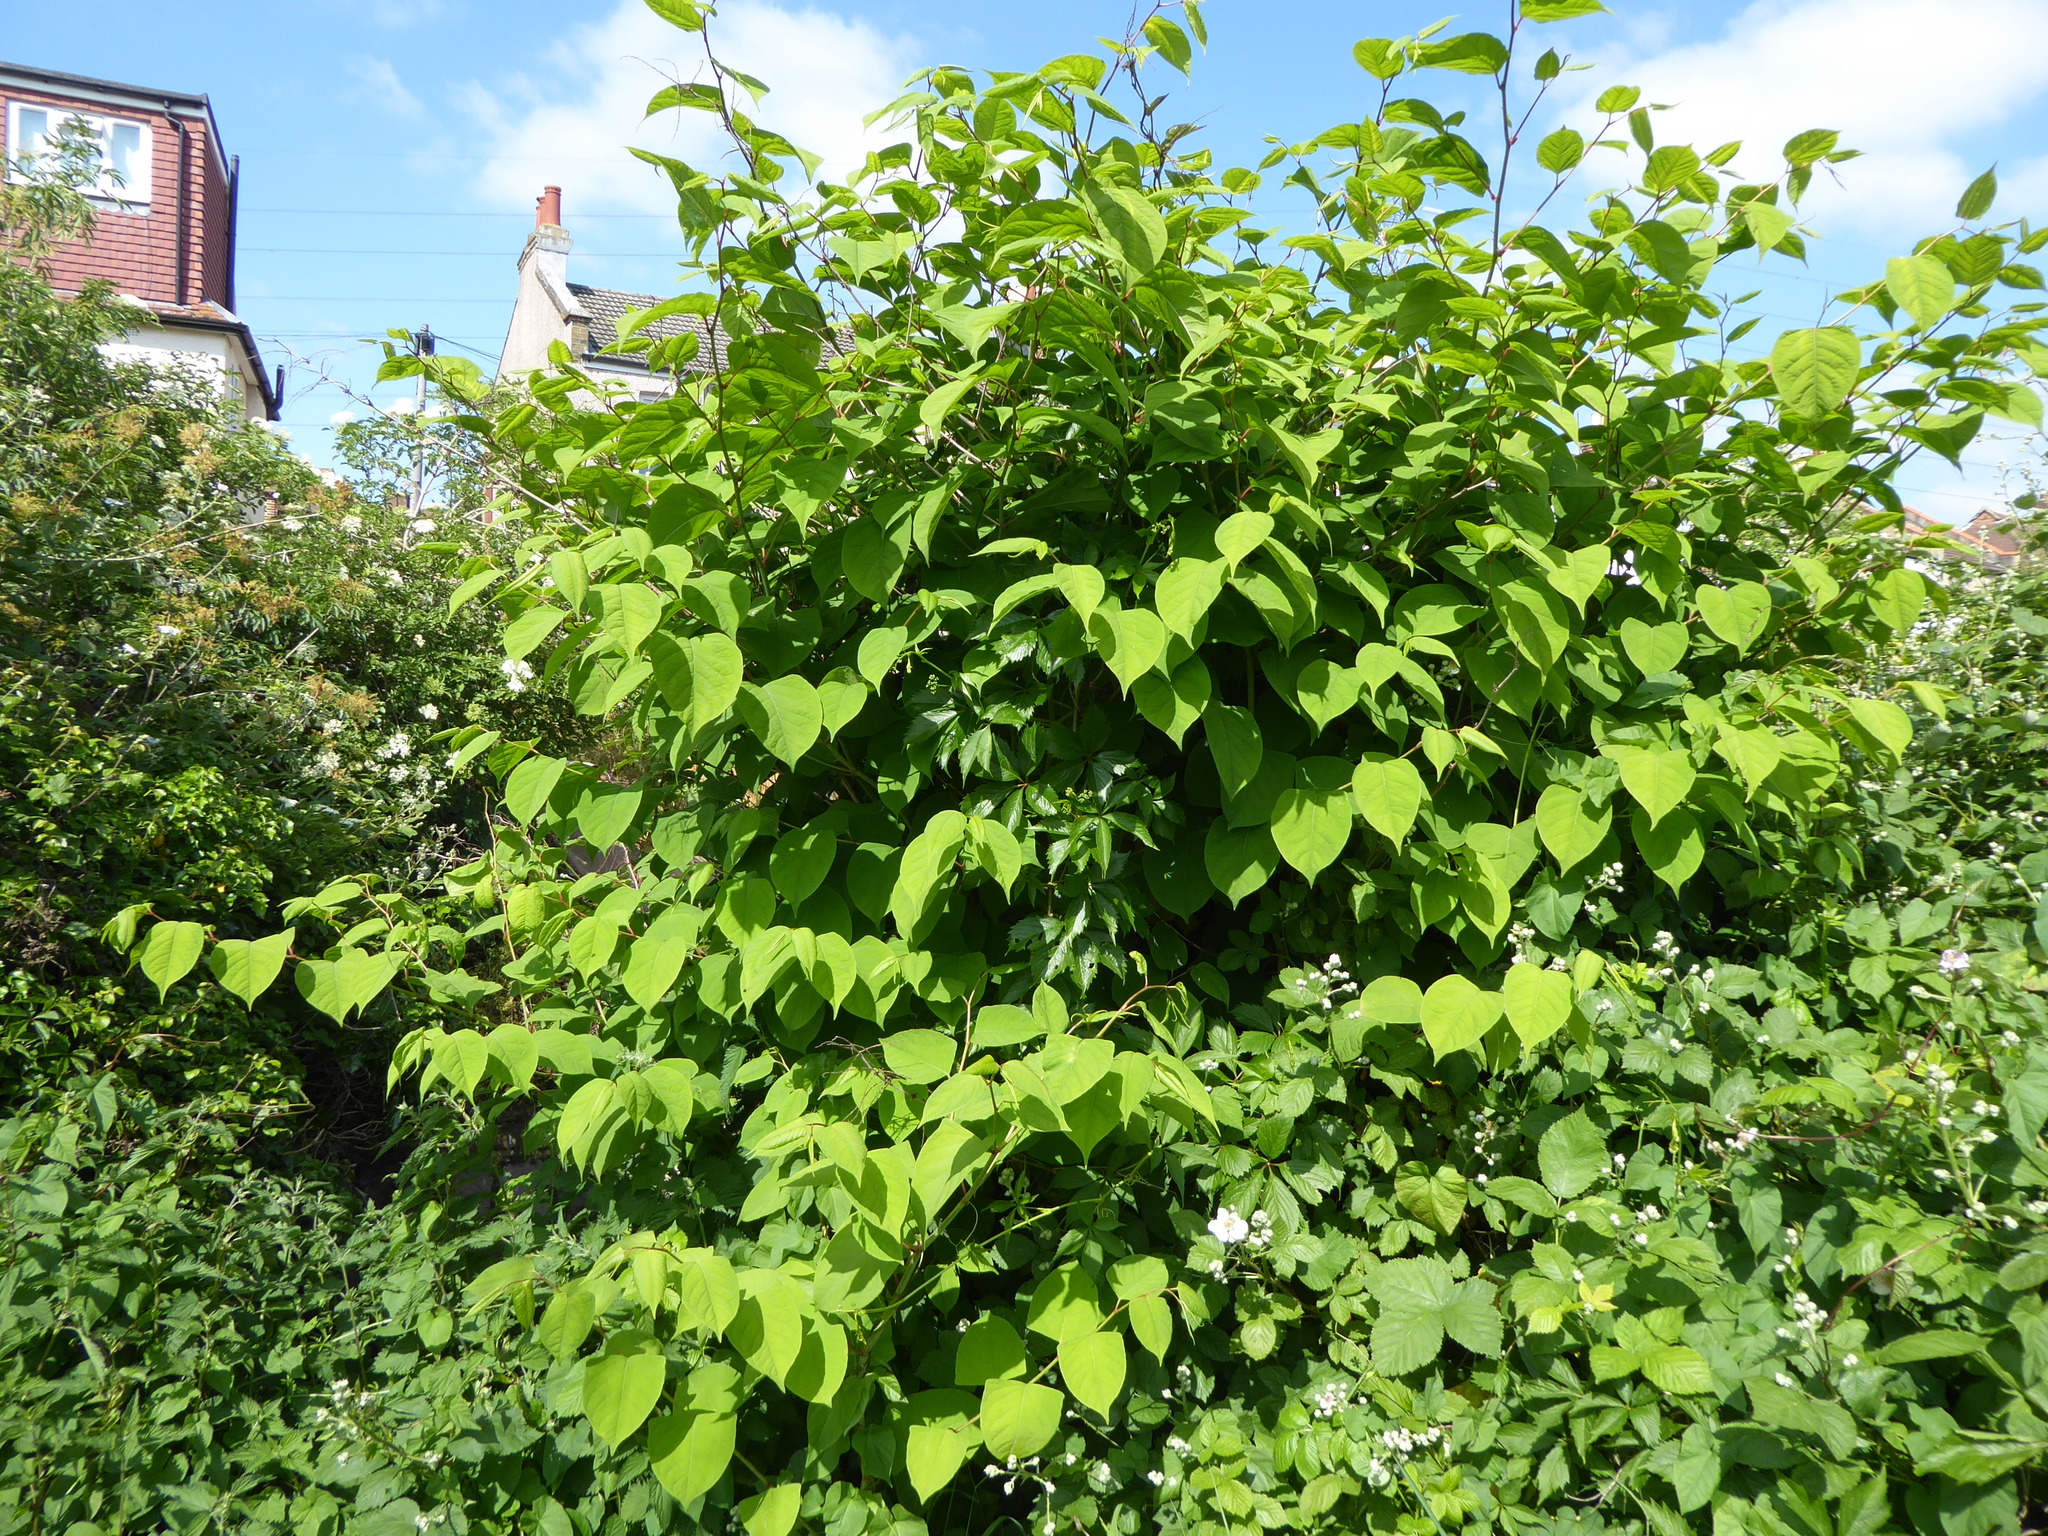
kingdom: Plantae
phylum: Tracheophyta
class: Magnoliopsida
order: Caryophyllales
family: Polygonaceae
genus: Reynoutria
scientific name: Reynoutria japonica
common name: Japanese knotweed
